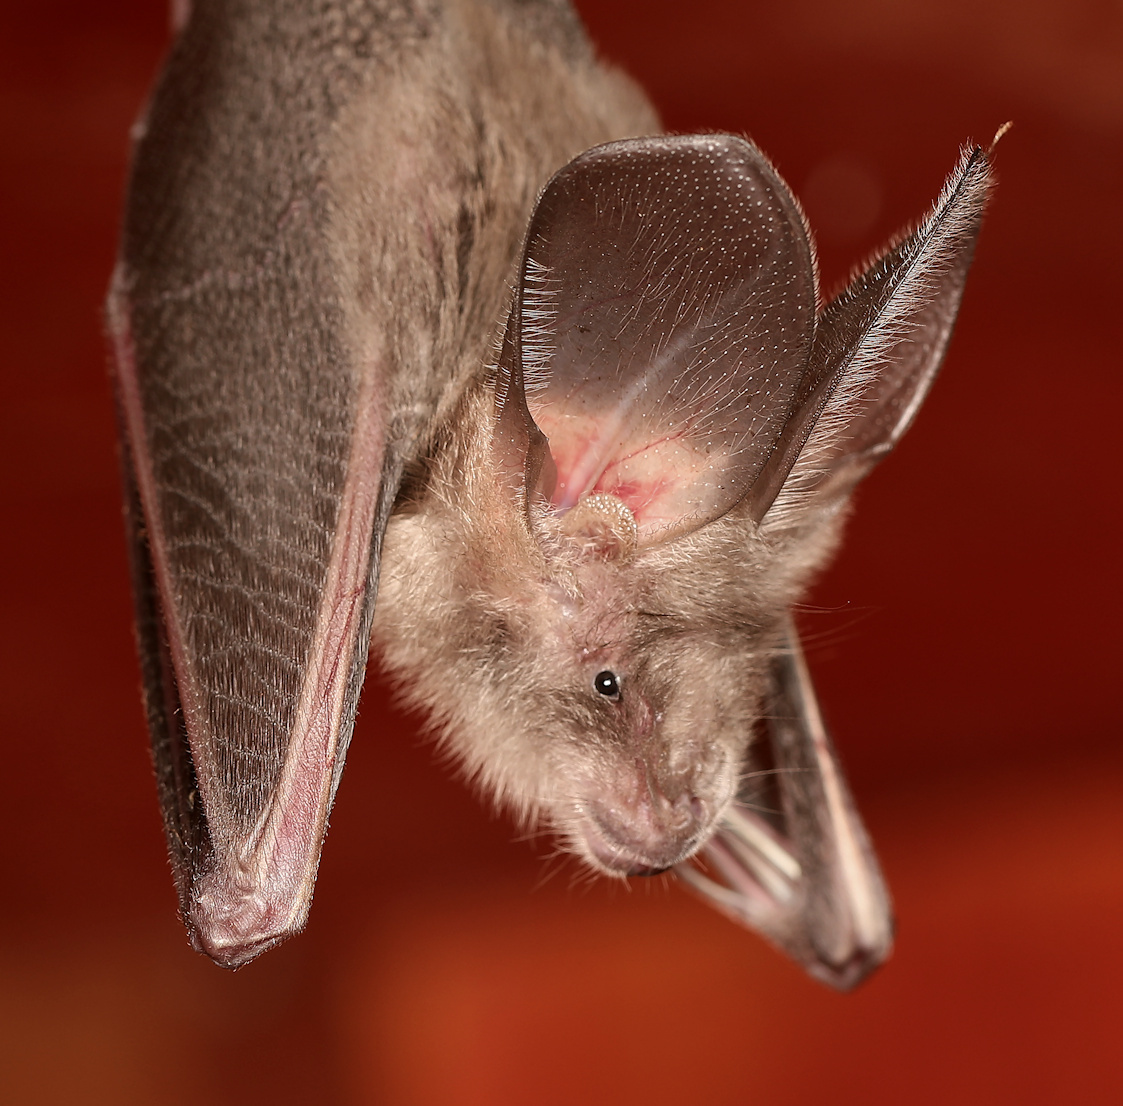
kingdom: Animalia
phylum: Chordata
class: Mammalia
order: Chiroptera
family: Nycteridae
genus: Nycteris
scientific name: Nycteris thebaica
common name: Egyptian slit-faced bat
